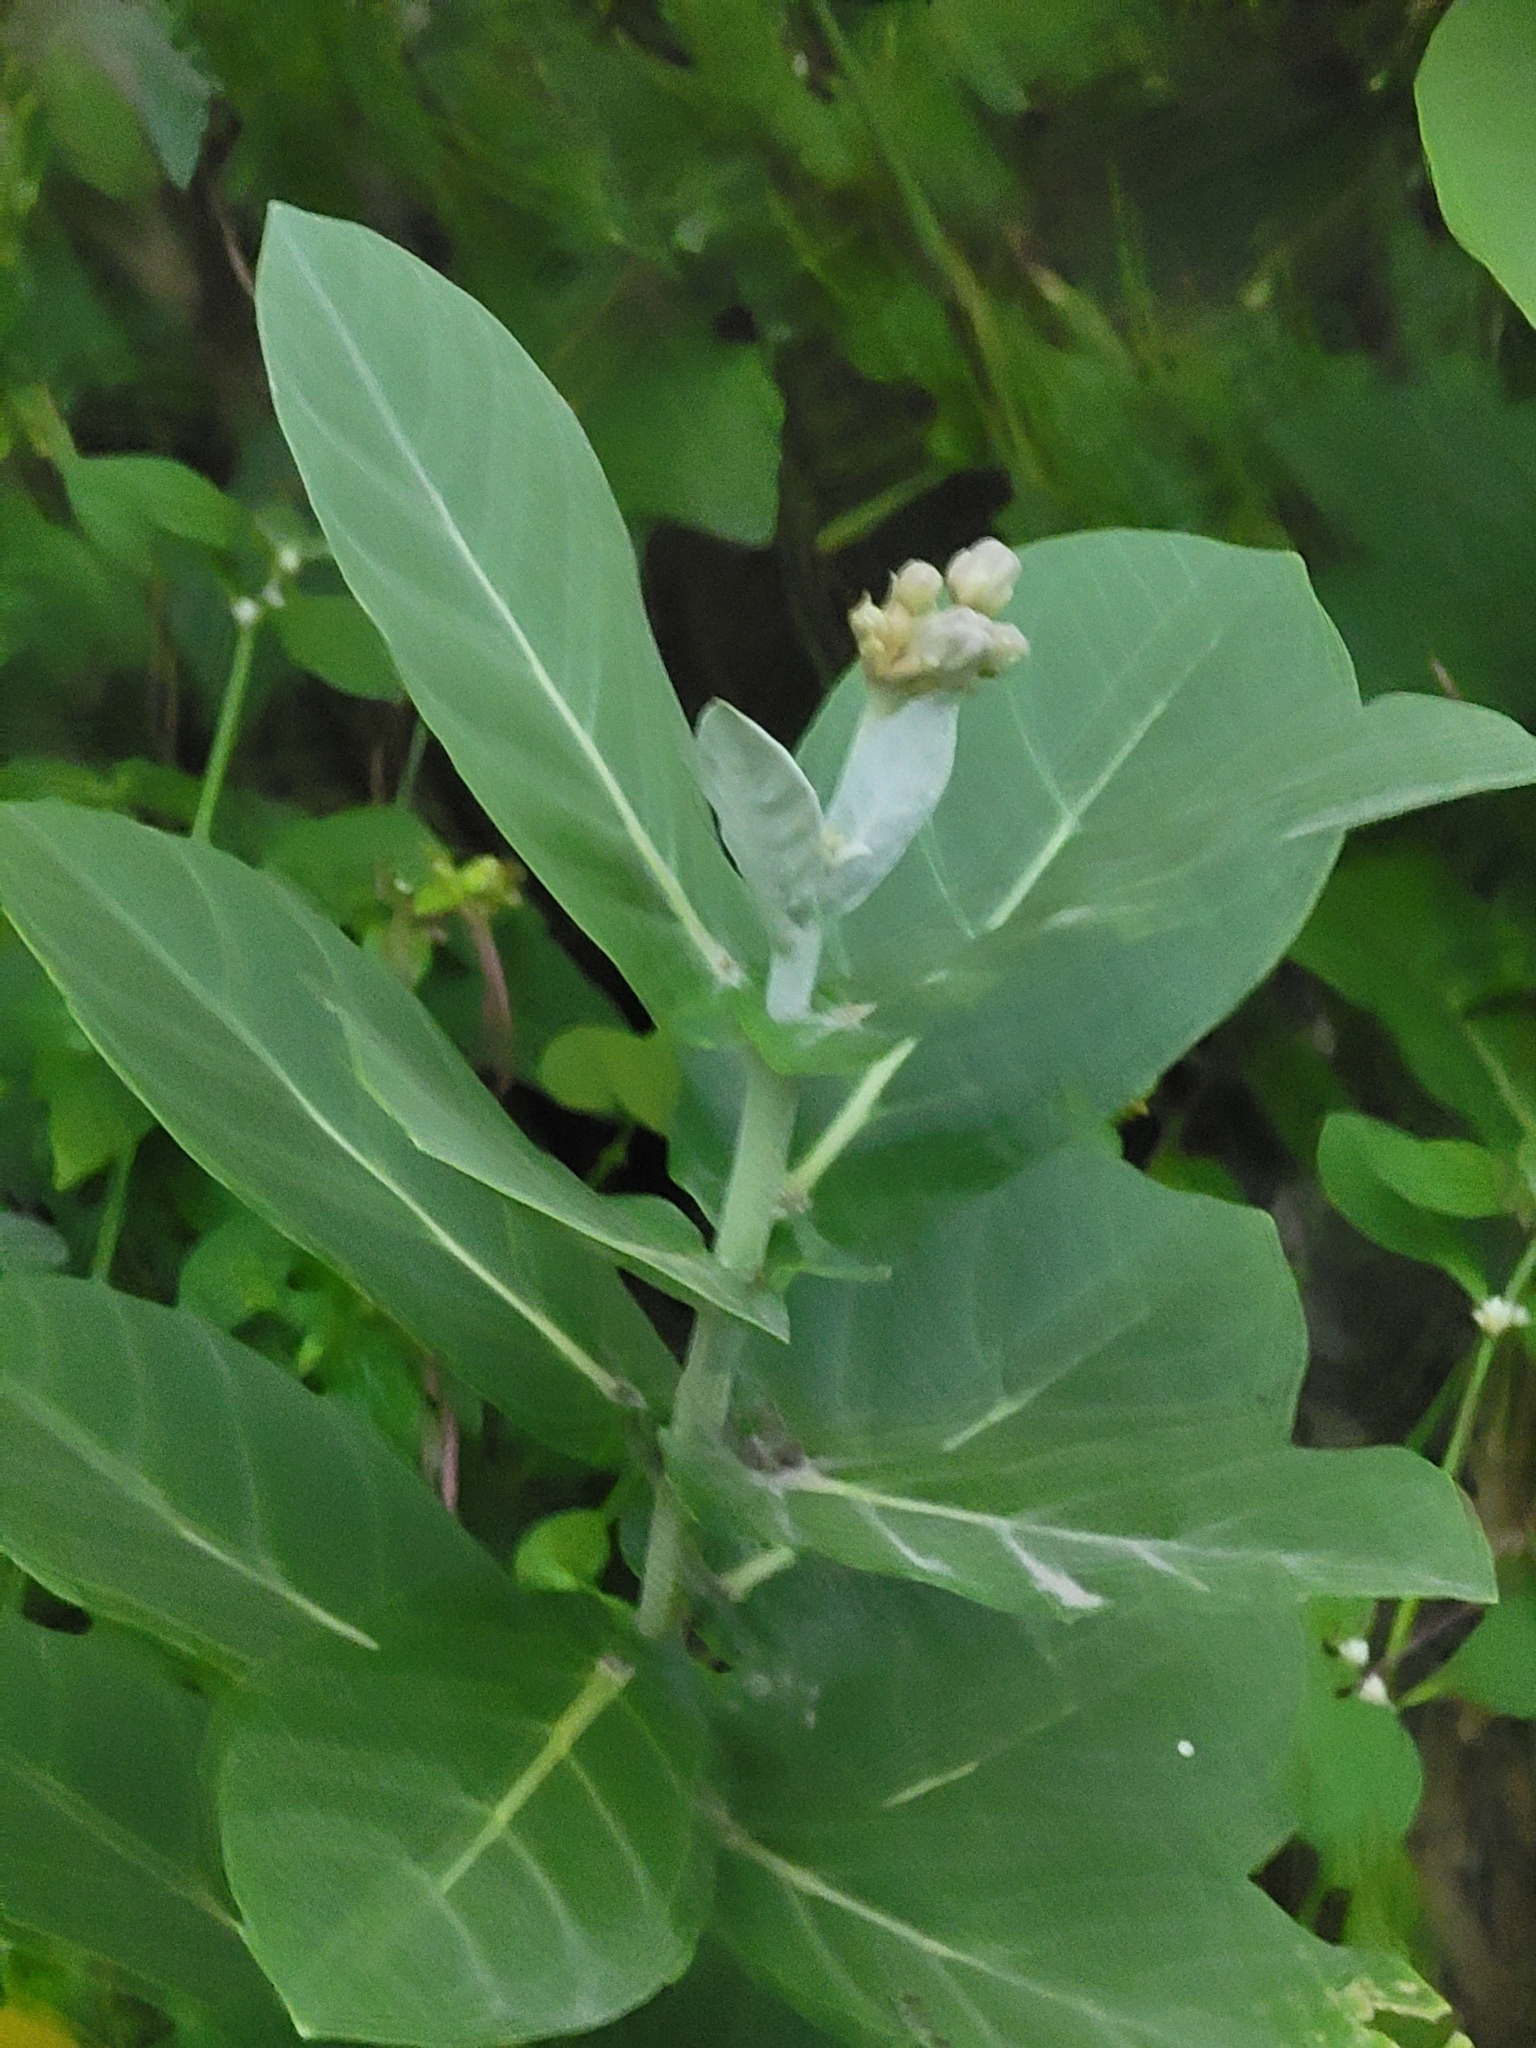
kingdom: Plantae
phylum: Tracheophyta
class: Magnoliopsida
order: Gentianales
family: Apocynaceae
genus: Calotropis
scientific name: Calotropis gigantea
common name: Crown flower
